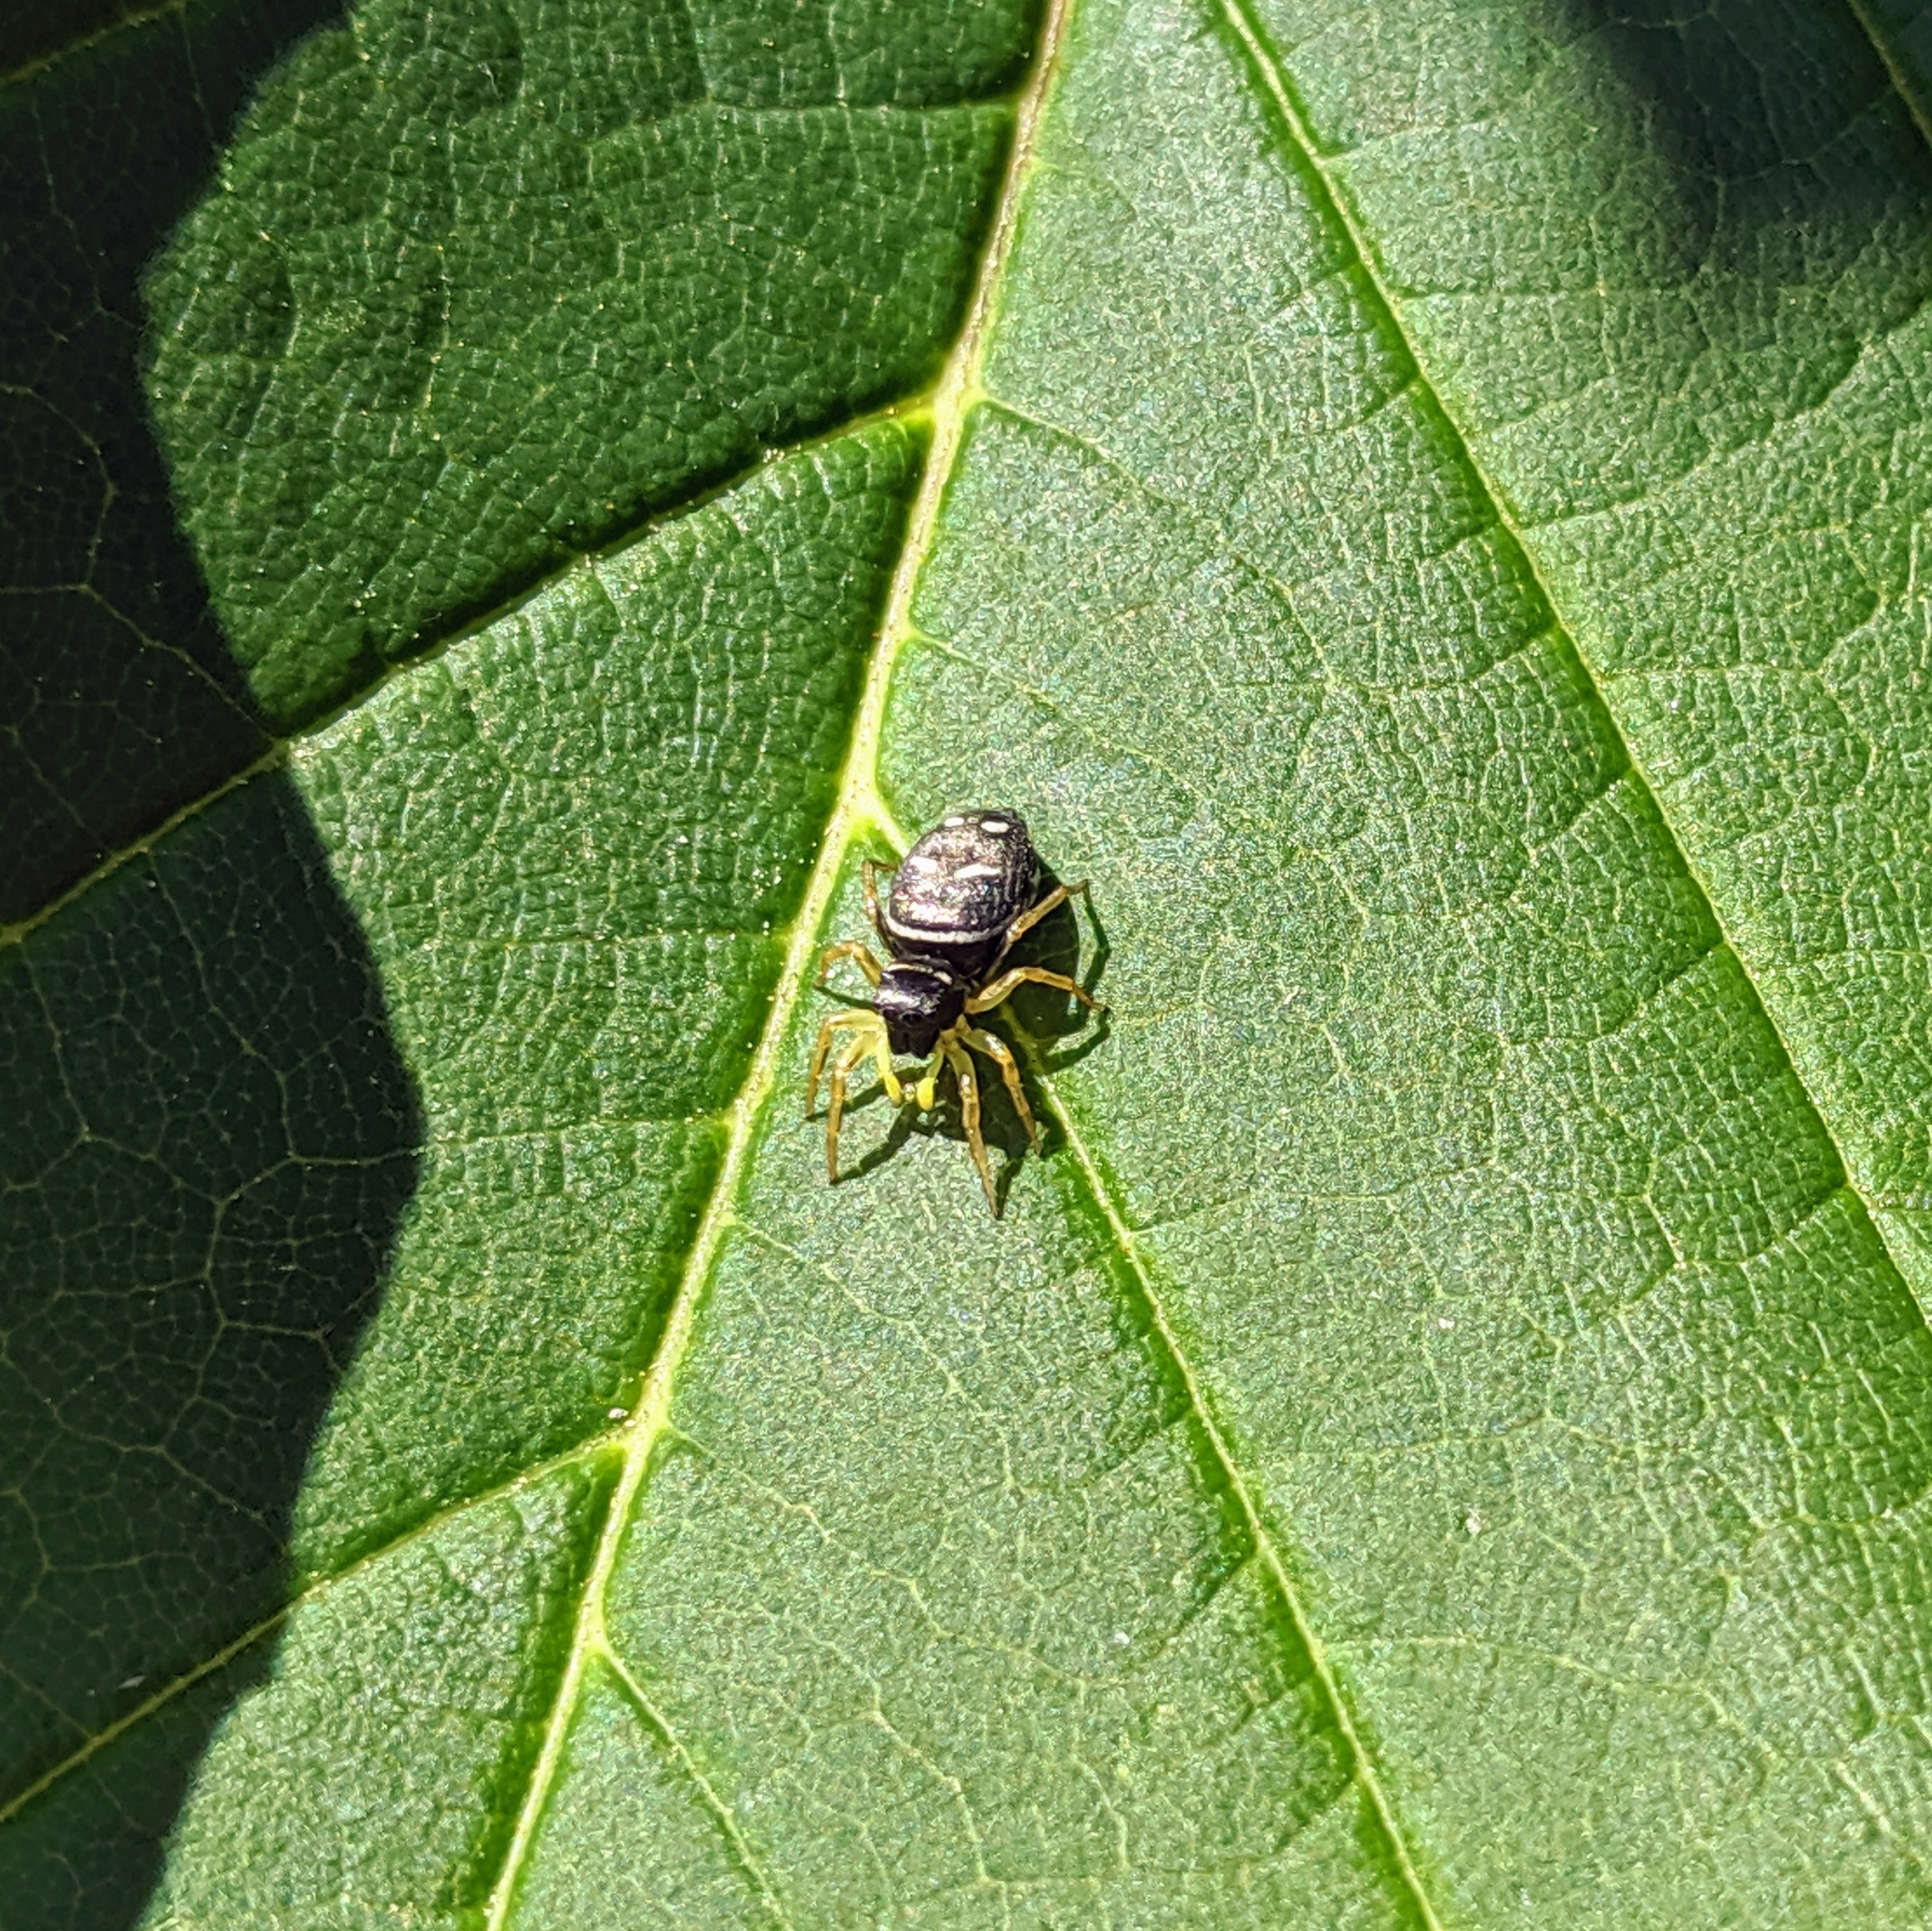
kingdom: Animalia
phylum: Arthropoda
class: Arachnida
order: Araneae
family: Salticidae
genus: Heliophanus
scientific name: Heliophanus cupreus
